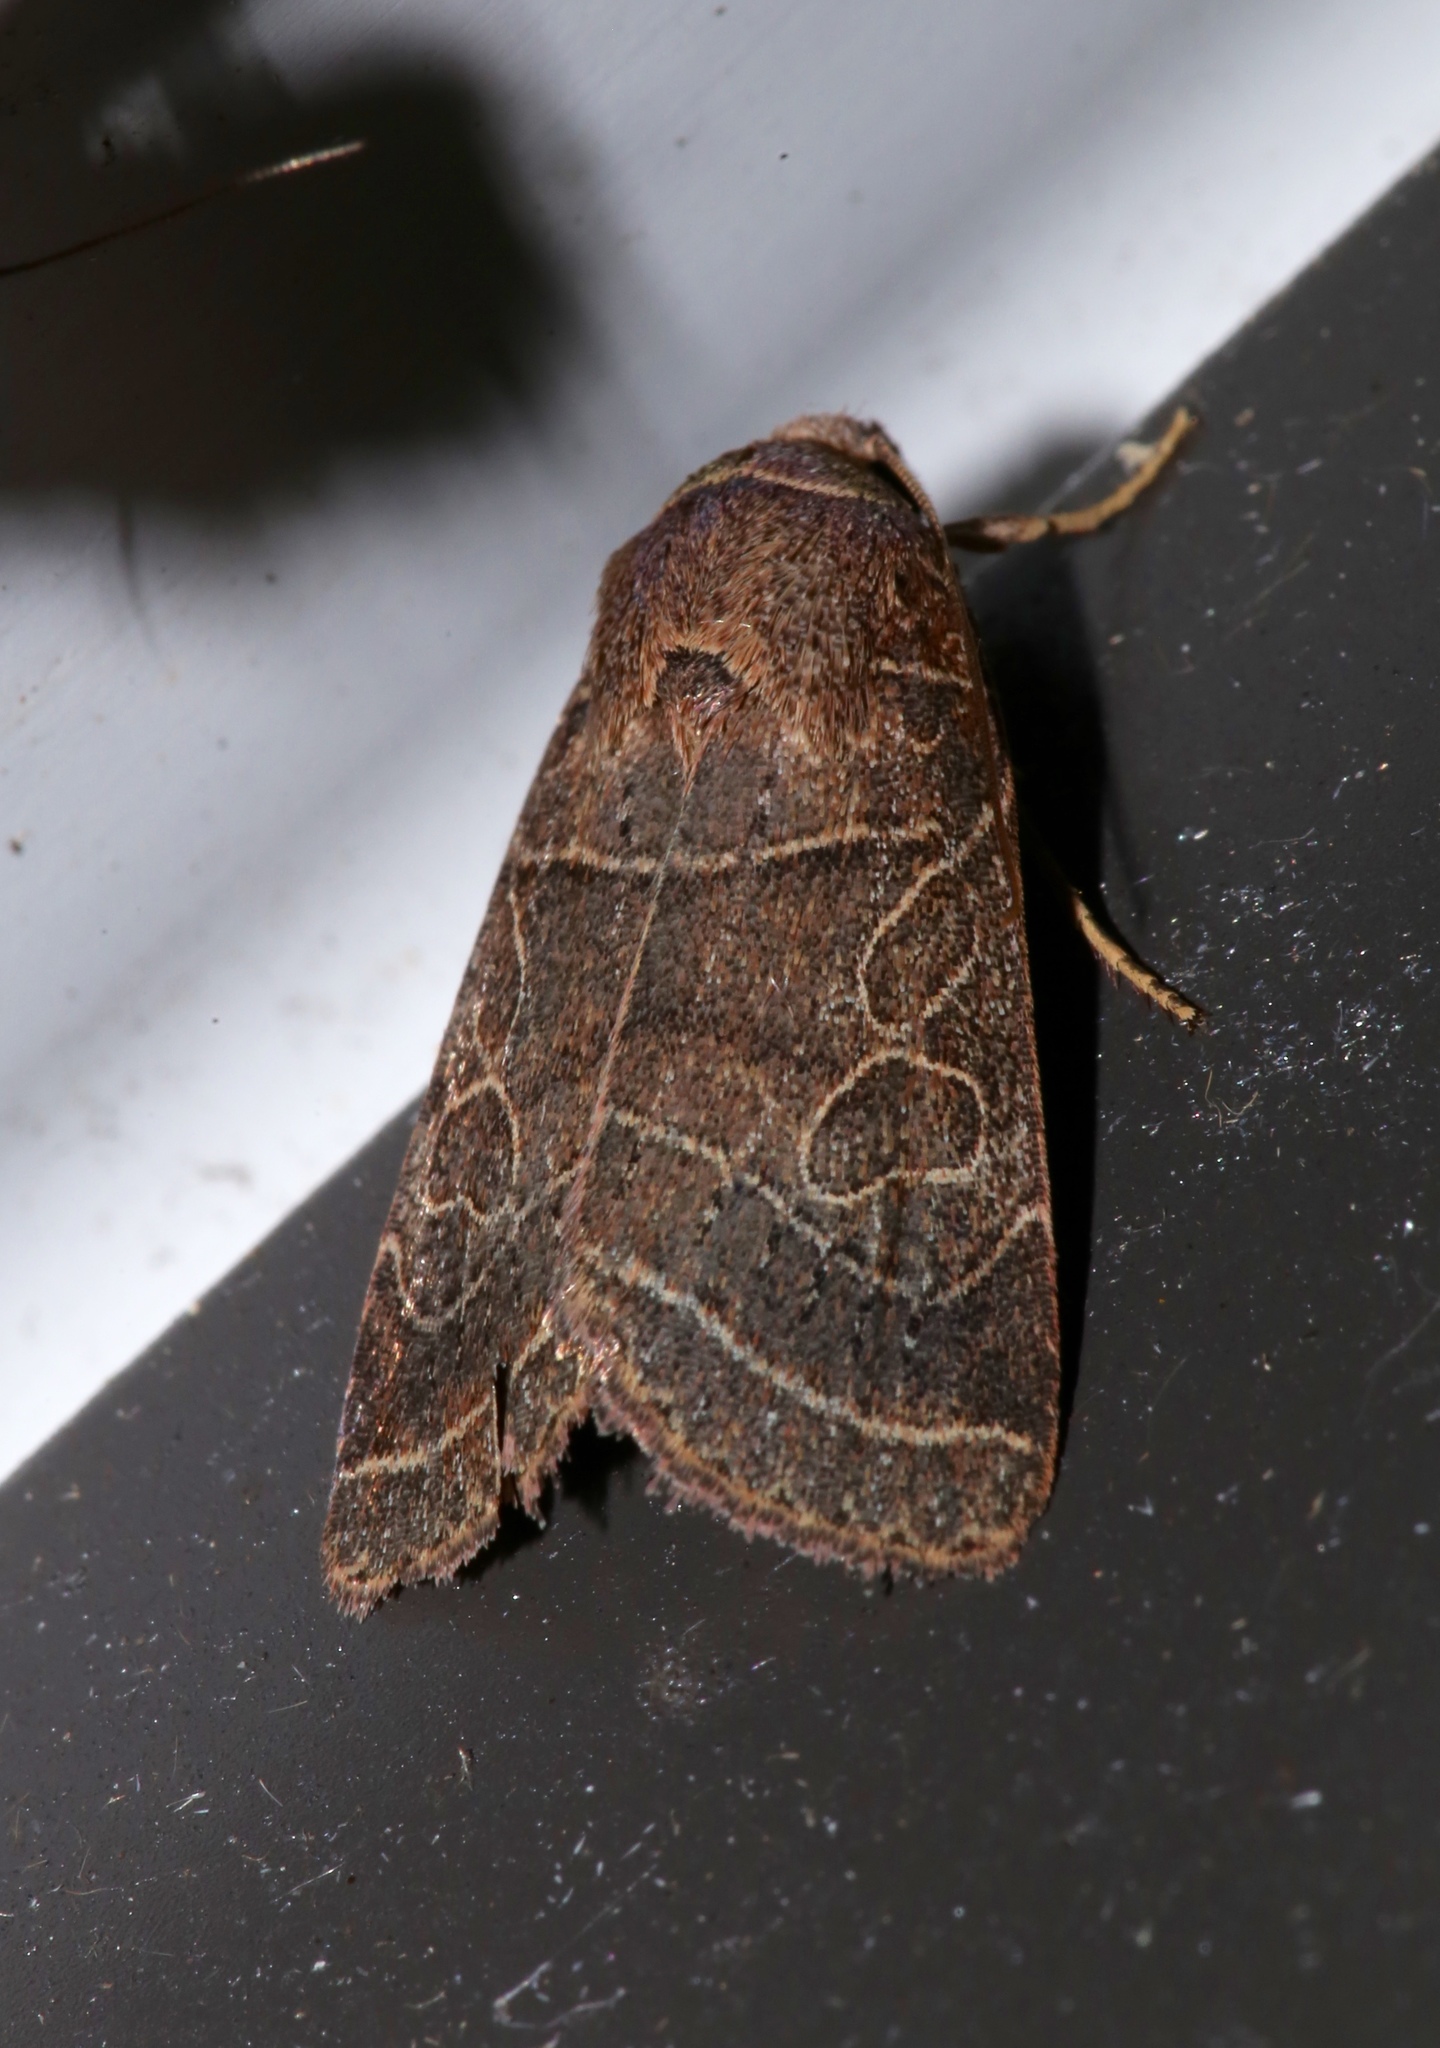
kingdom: Animalia
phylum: Arthropoda
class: Insecta
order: Lepidoptera
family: Noctuidae
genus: Orthodes
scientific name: Orthodes majuscula
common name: Rustic quaker
